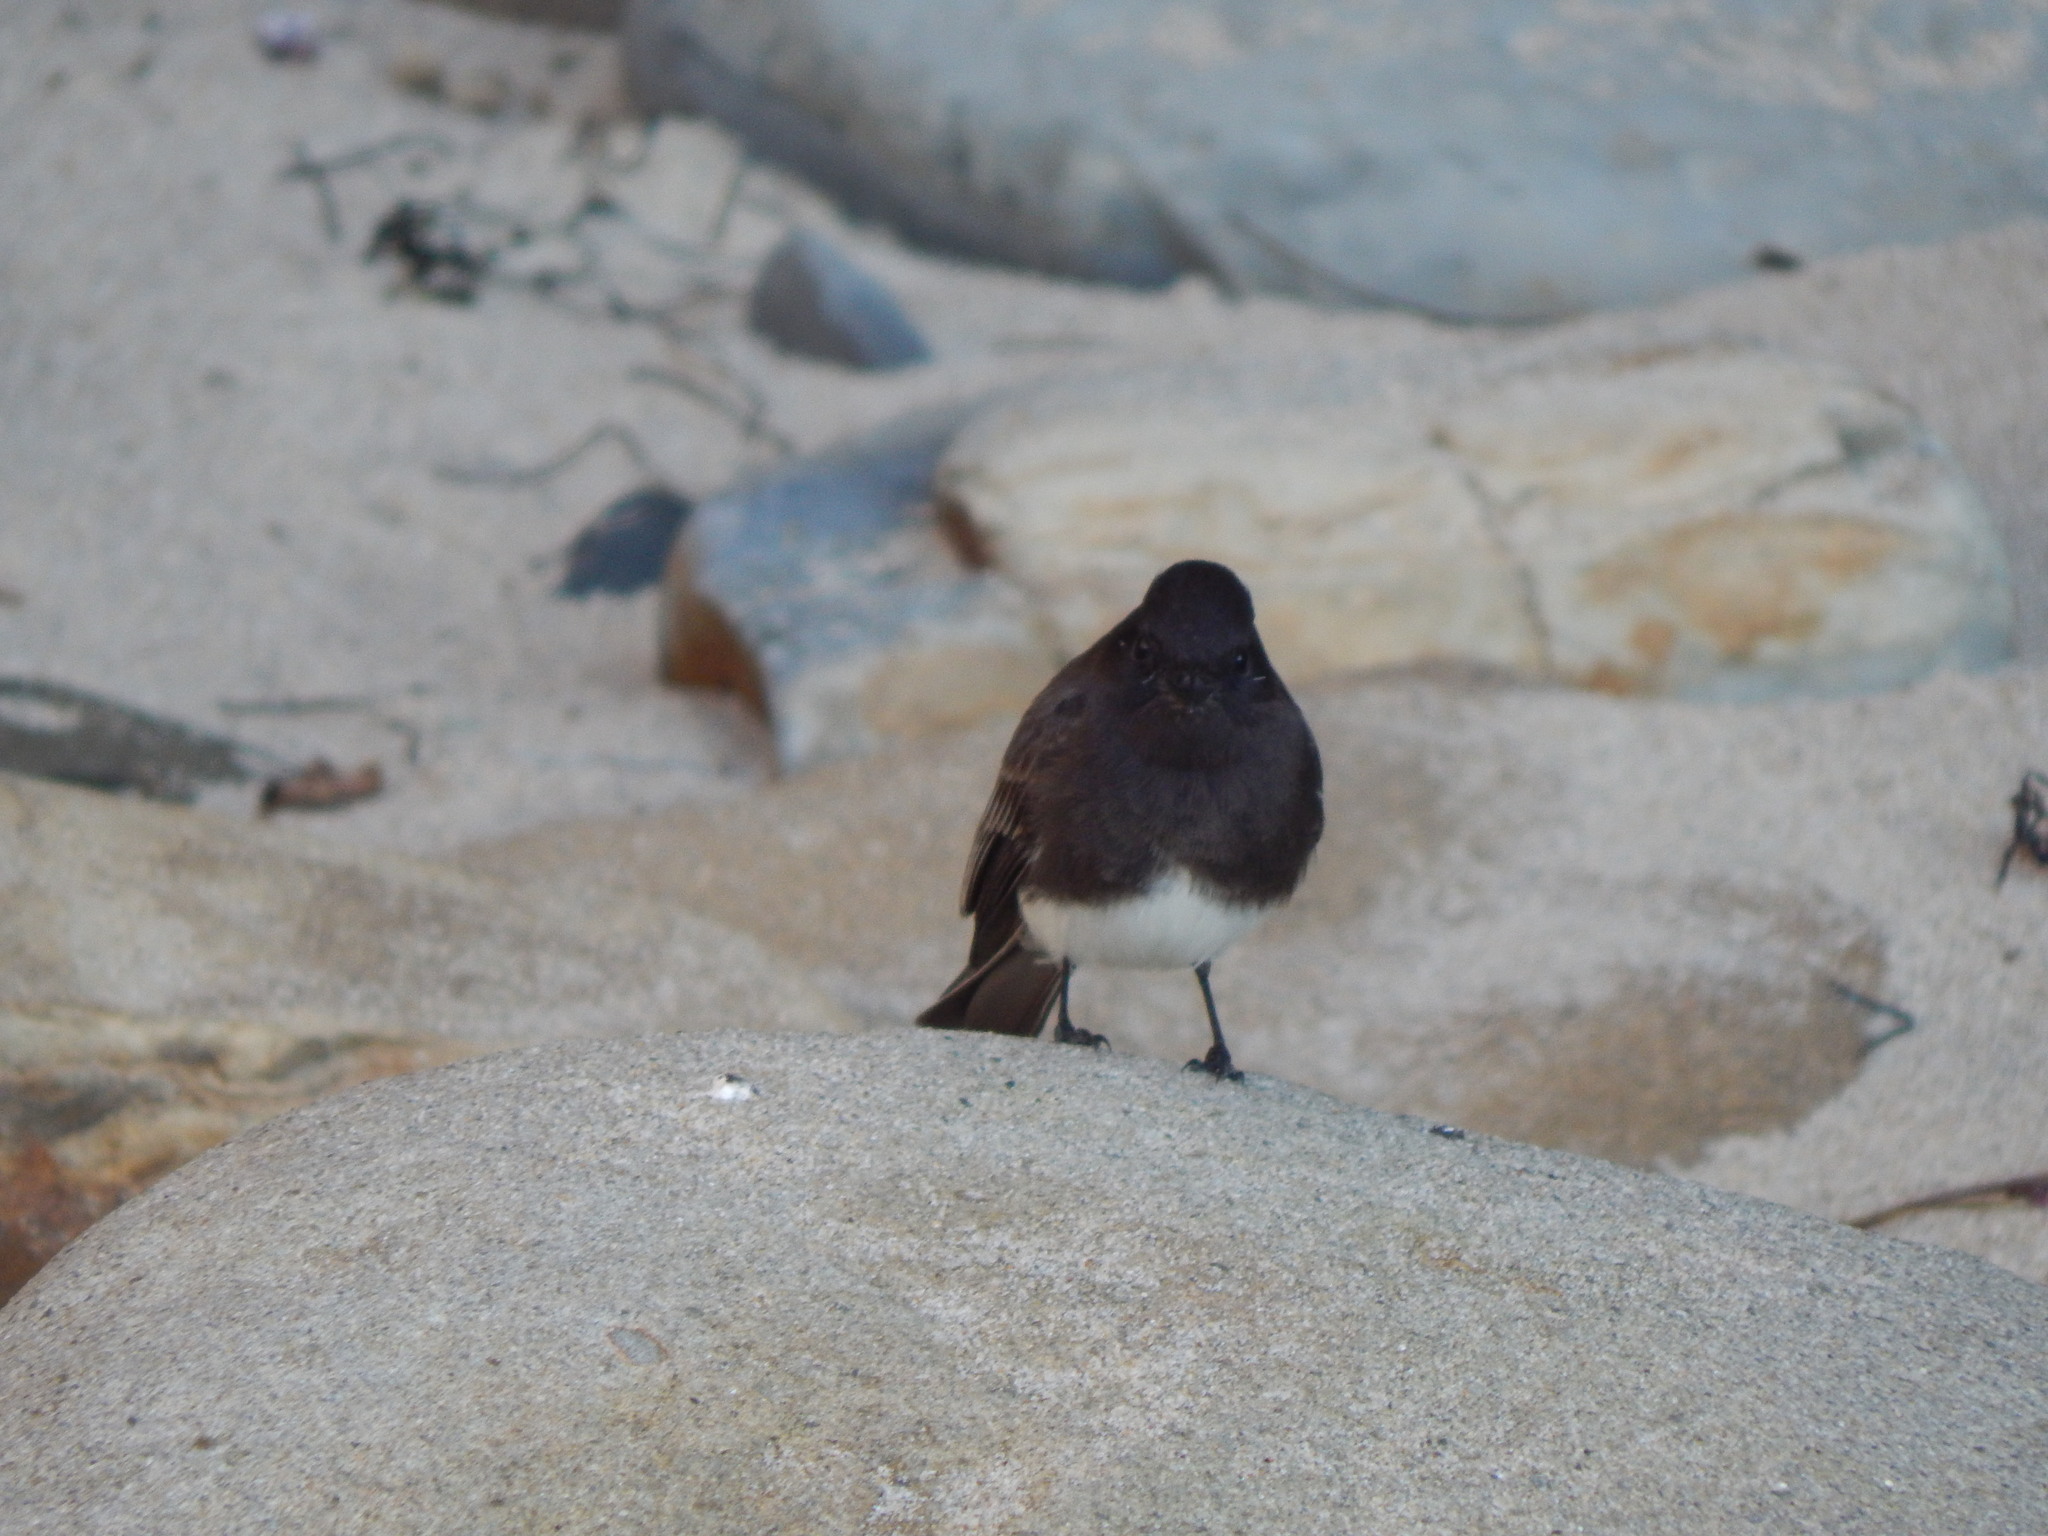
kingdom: Animalia
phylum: Chordata
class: Aves
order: Passeriformes
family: Tyrannidae
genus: Sayornis
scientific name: Sayornis nigricans
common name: Black phoebe
